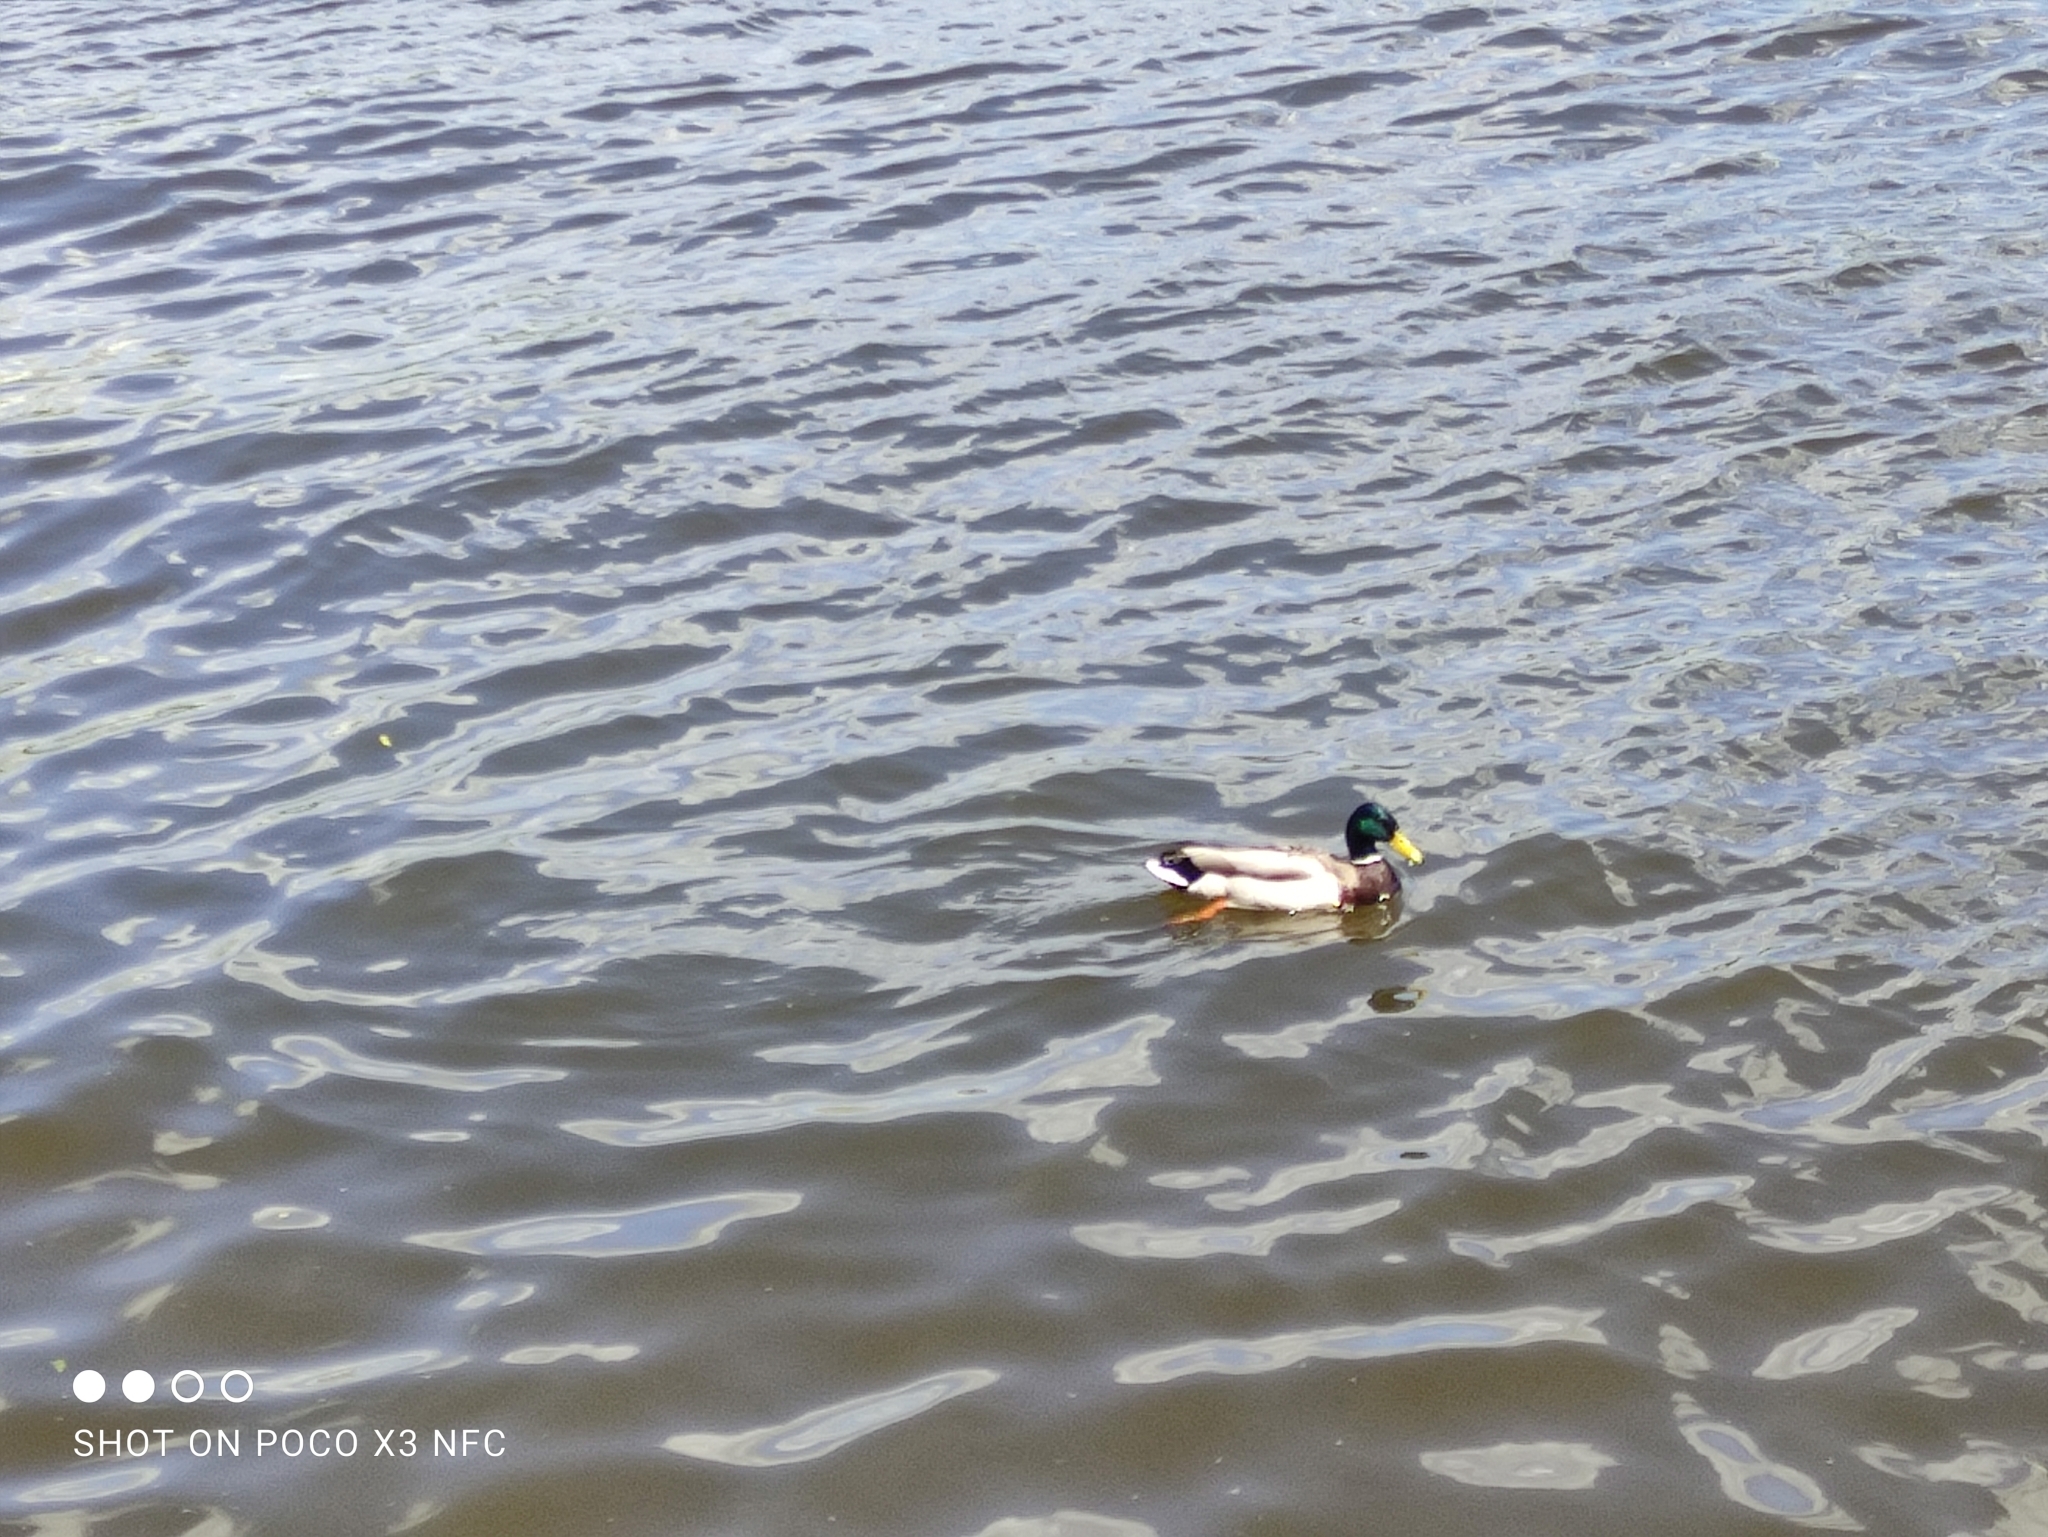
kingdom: Animalia
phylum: Chordata
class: Aves
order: Anseriformes
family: Anatidae
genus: Anas
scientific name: Anas platyrhynchos
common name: Mallard
